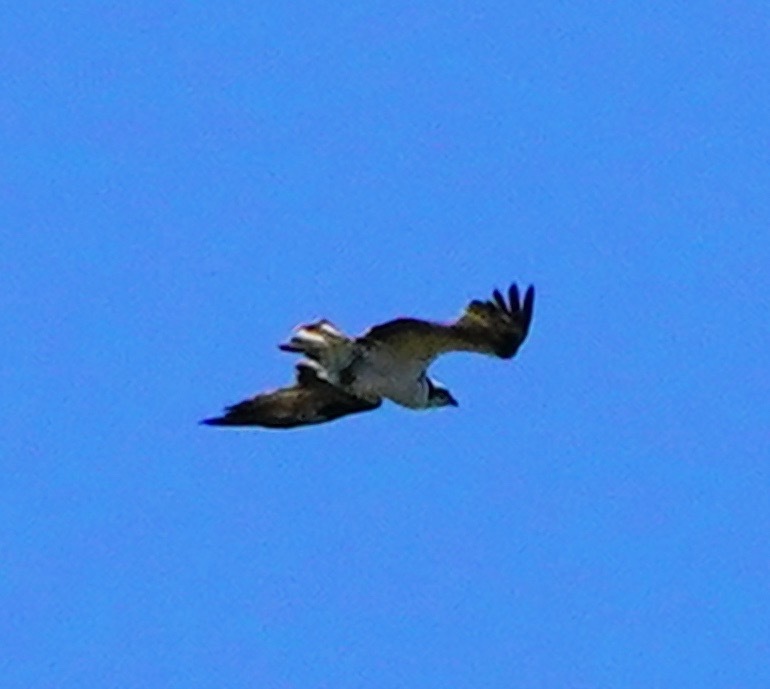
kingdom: Animalia
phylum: Chordata
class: Aves
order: Accipitriformes
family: Pandionidae
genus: Pandion
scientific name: Pandion haliaetus
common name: Osprey
